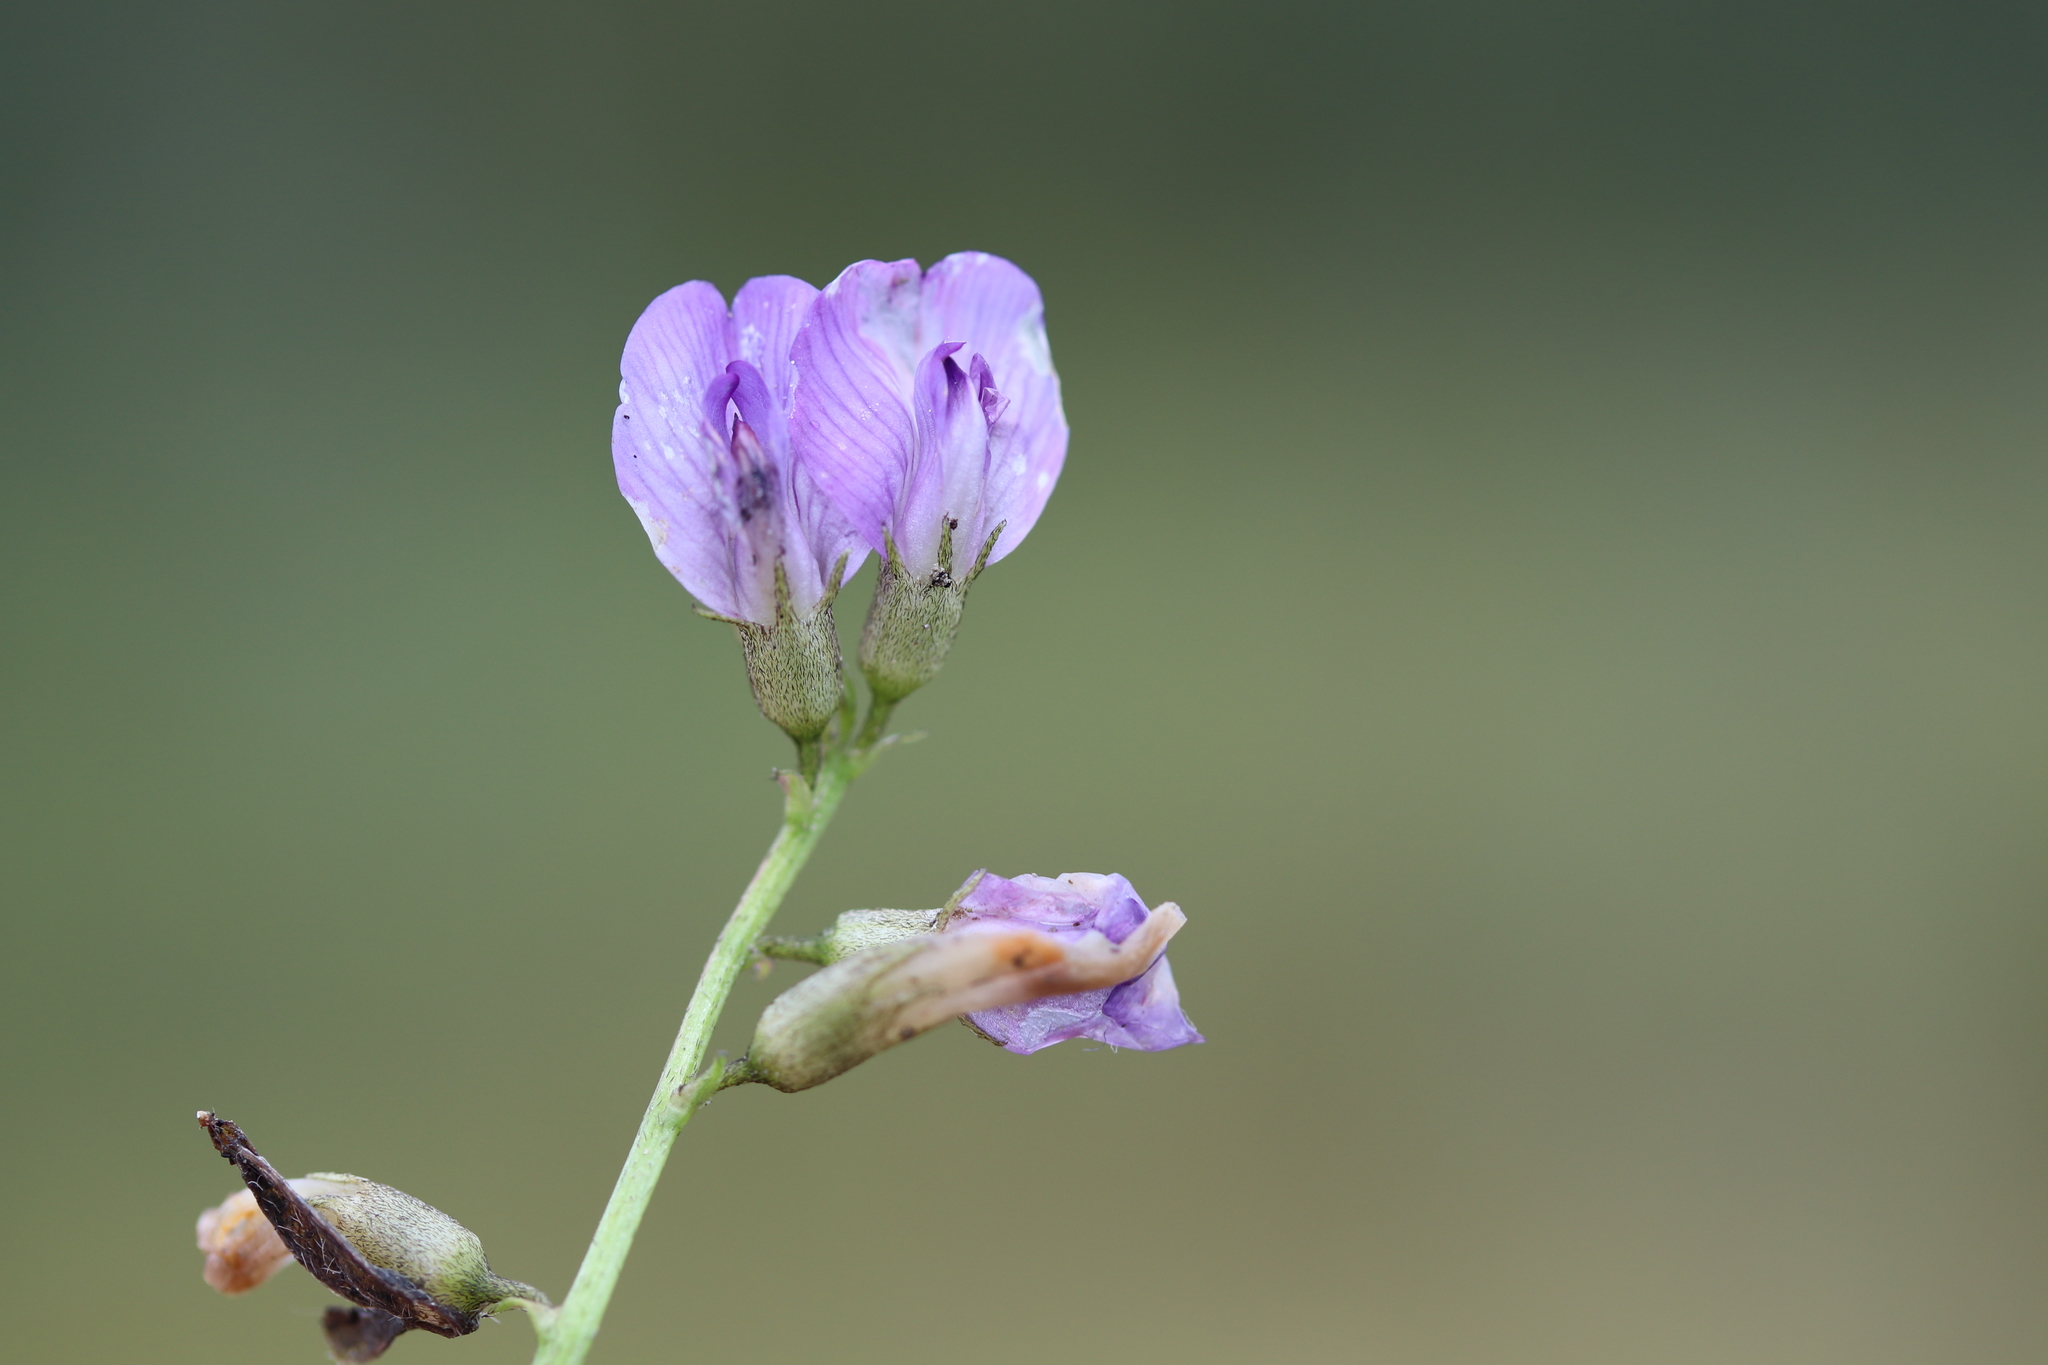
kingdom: Plantae
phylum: Tracheophyta
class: Magnoliopsida
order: Fabales
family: Fabaceae
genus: Astragalus
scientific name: Astragalus bodinii
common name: Bodin's milk-vetch
